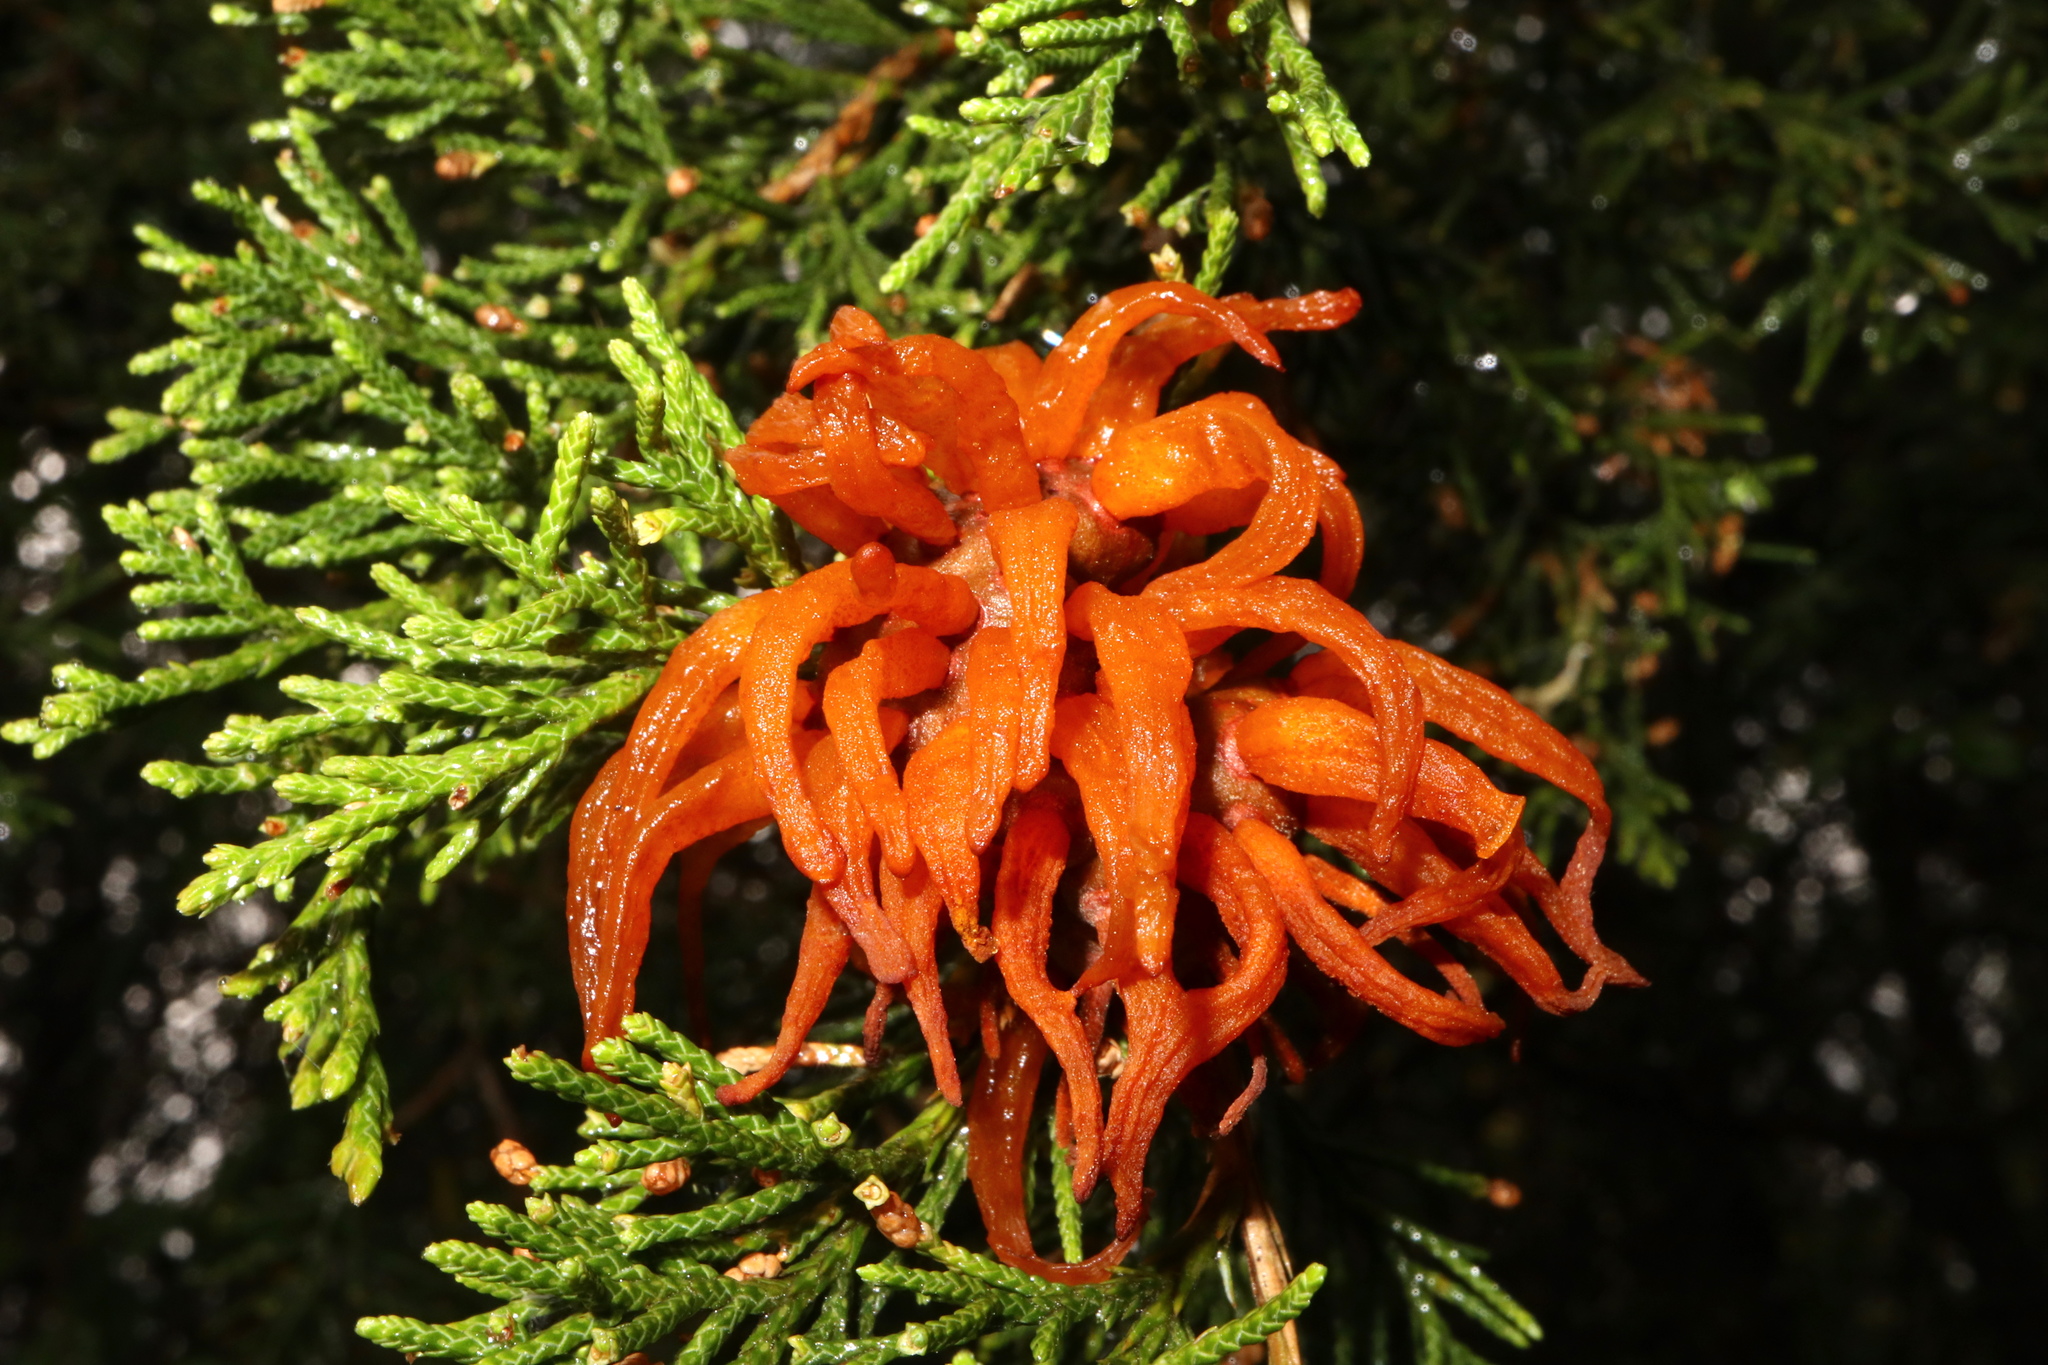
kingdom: Fungi
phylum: Basidiomycota
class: Pucciniomycetes
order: Pucciniales
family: Gymnosporangiaceae
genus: Gymnosporangium
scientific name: Gymnosporangium juniperi-virginianae
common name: Juniper-apple rust
